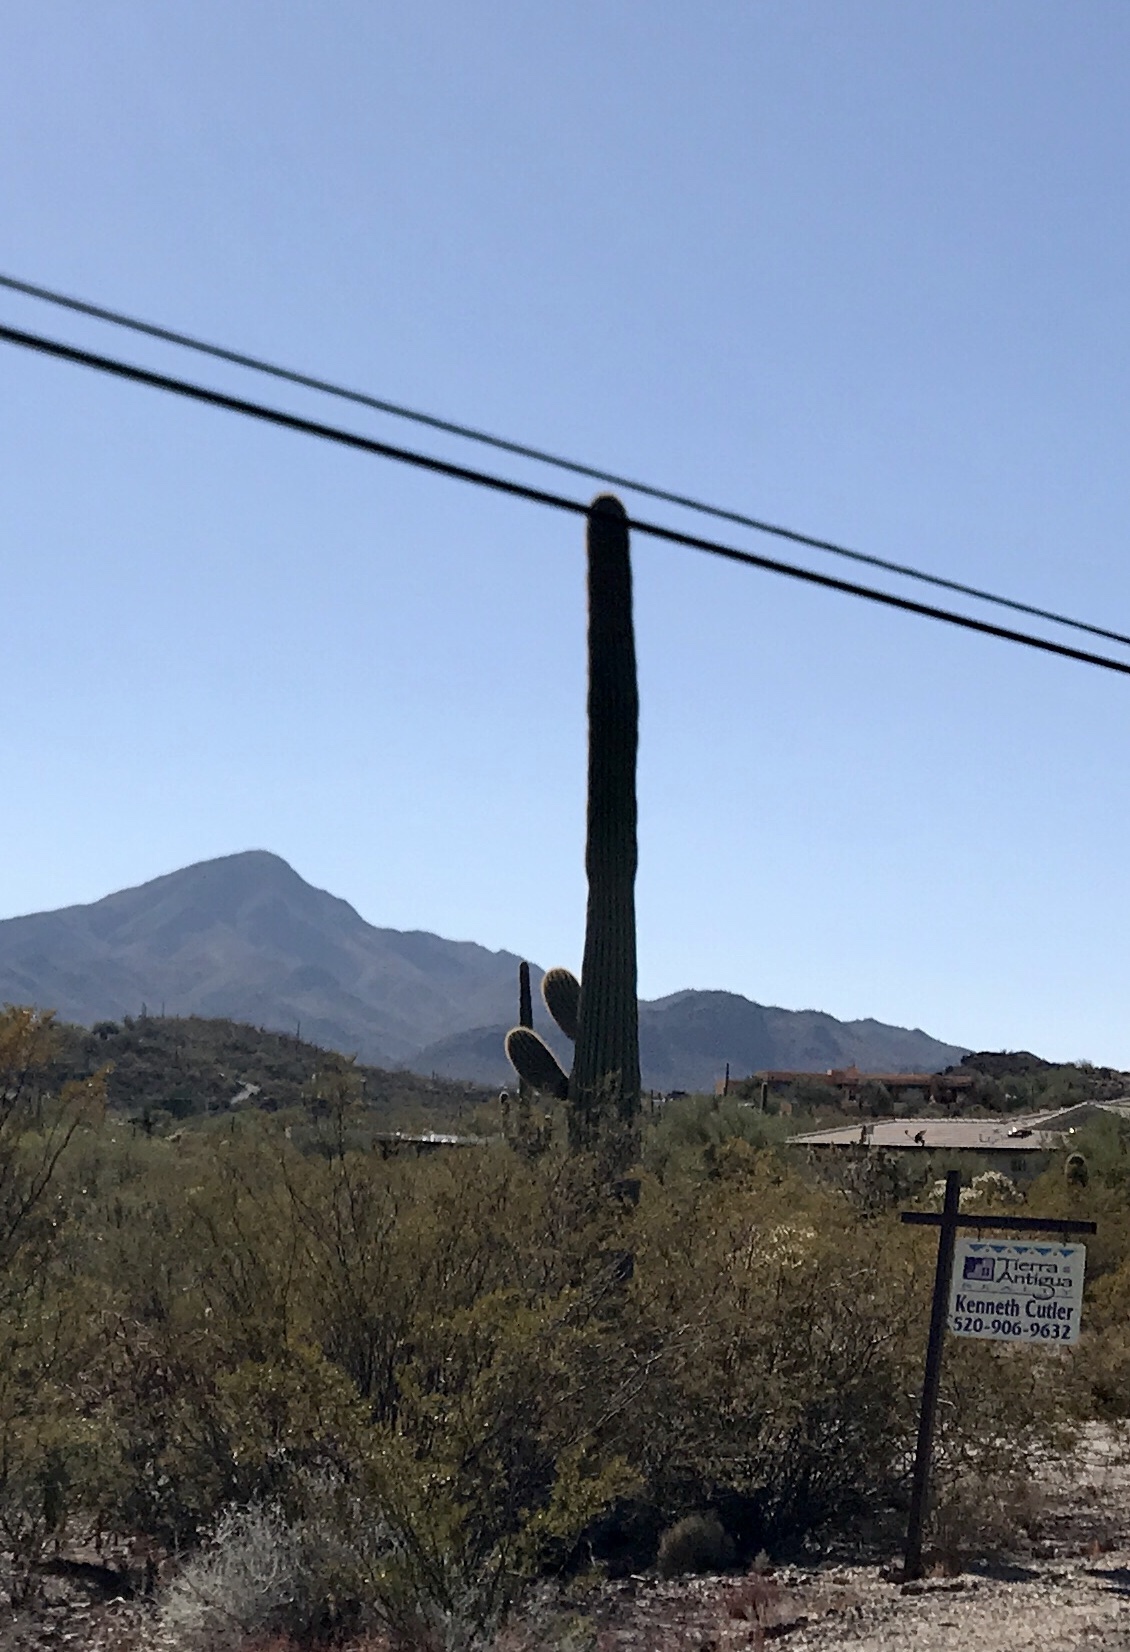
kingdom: Plantae
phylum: Tracheophyta
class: Magnoliopsida
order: Caryophyllales
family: Cactaceae
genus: Carnegiea
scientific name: Carnegiea gigantea
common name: Saguaro
